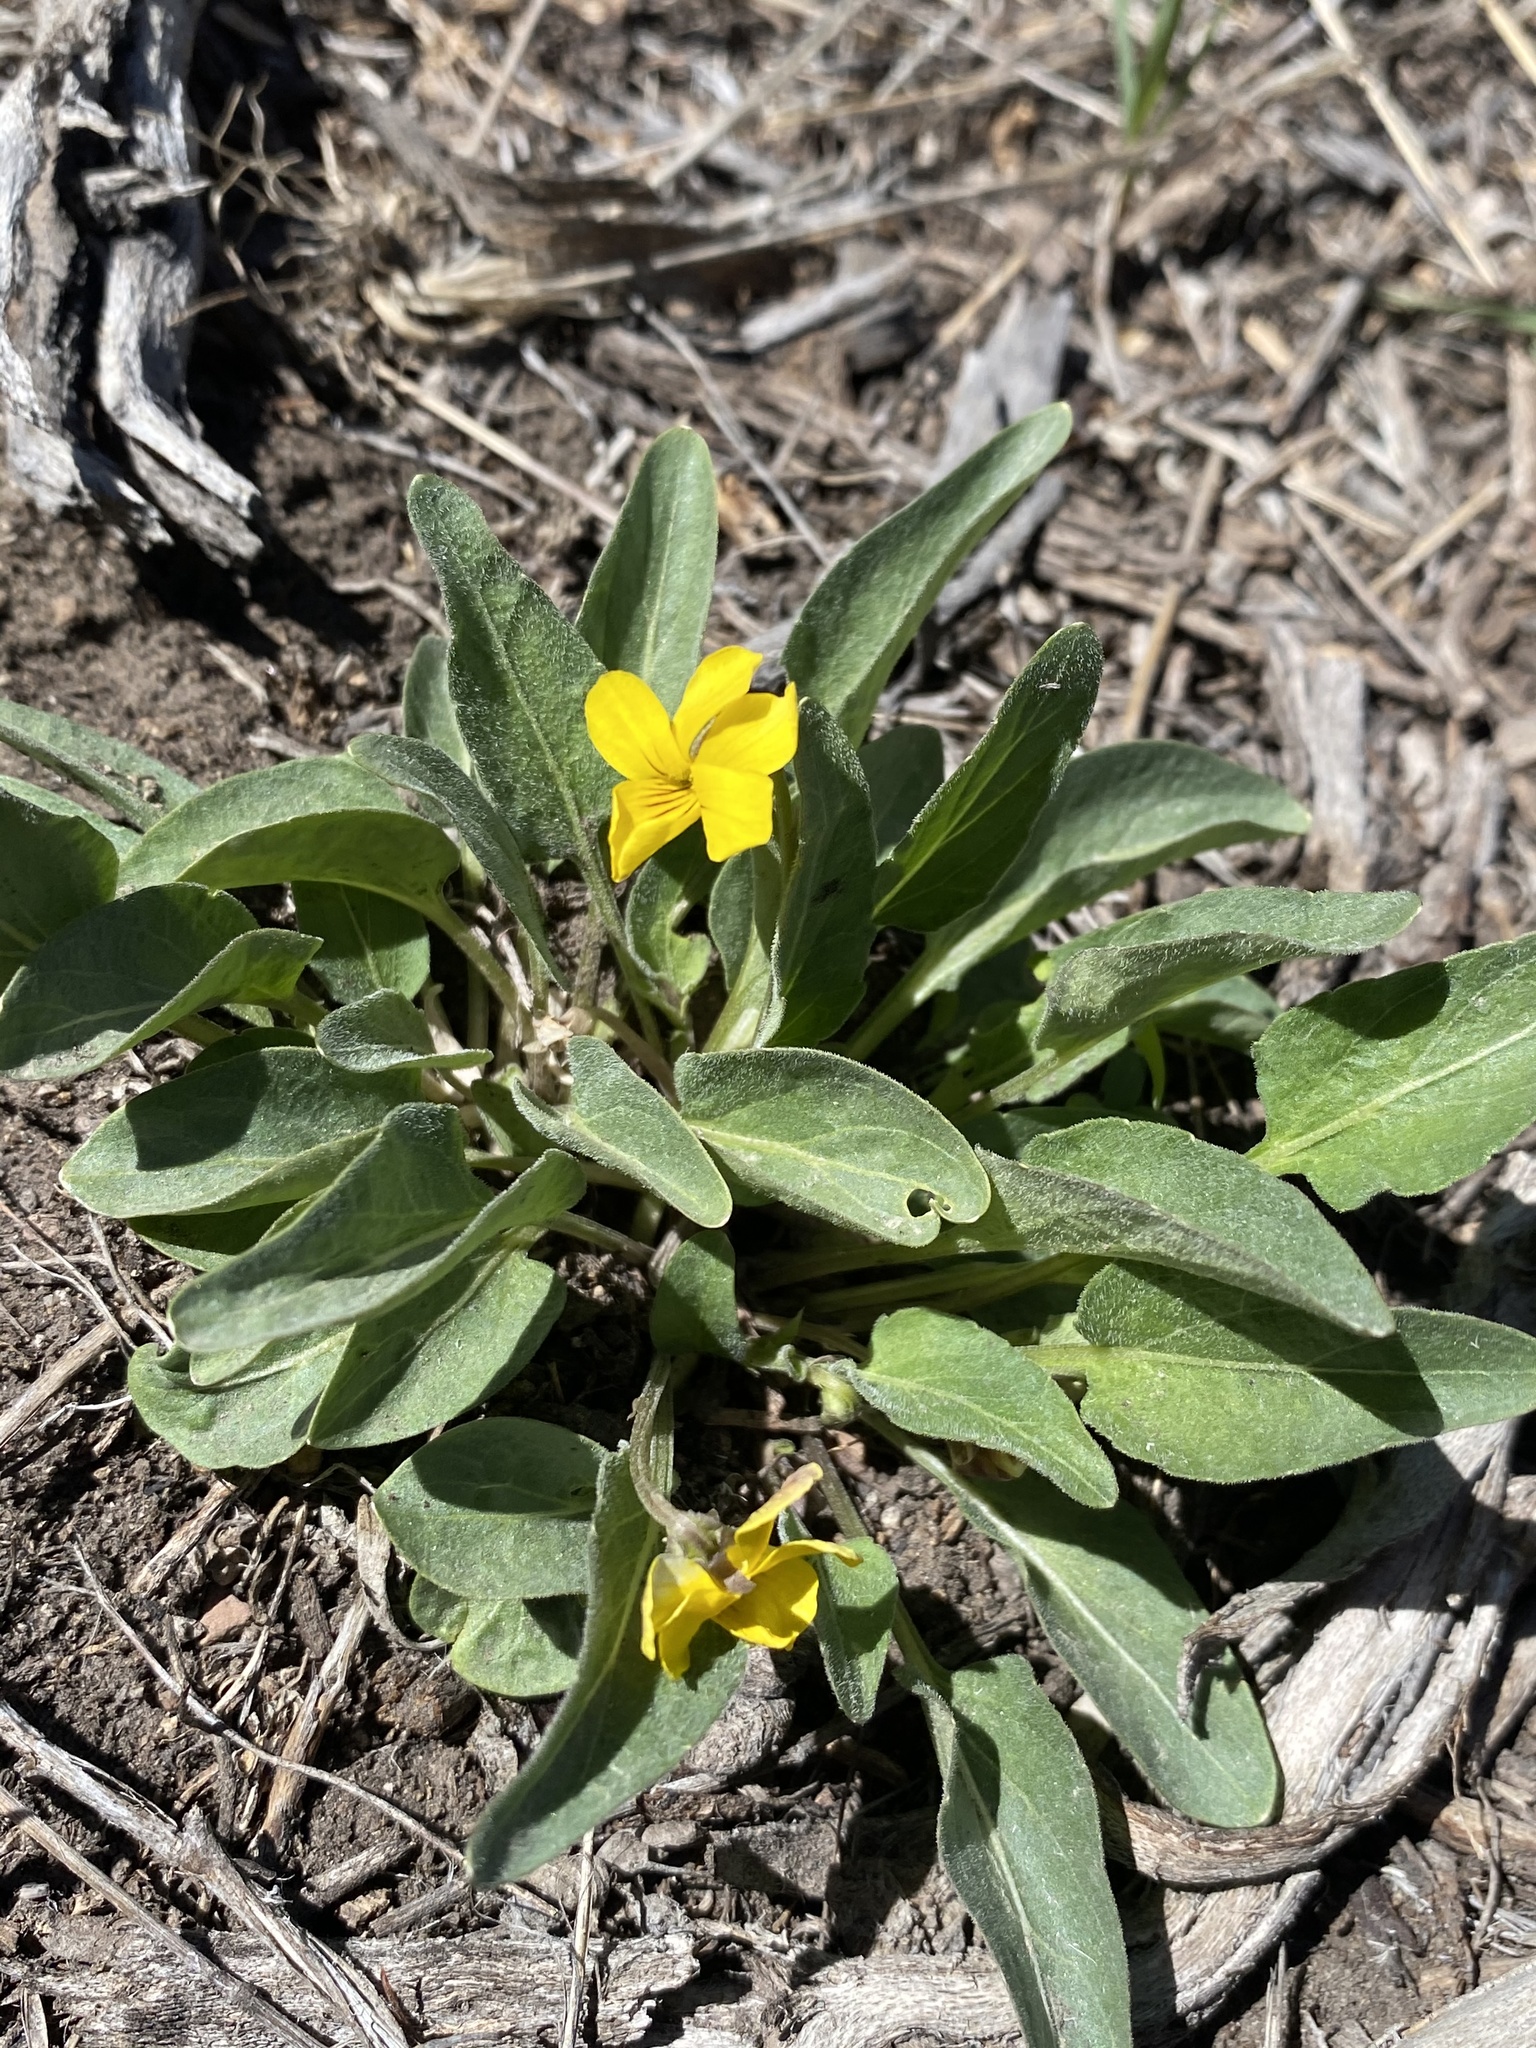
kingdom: Plantae
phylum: Tracheophyta
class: Magnoliopsida
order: Malpighiales
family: Violaceae
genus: Viola
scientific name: Viola vallicola
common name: Valley violet
